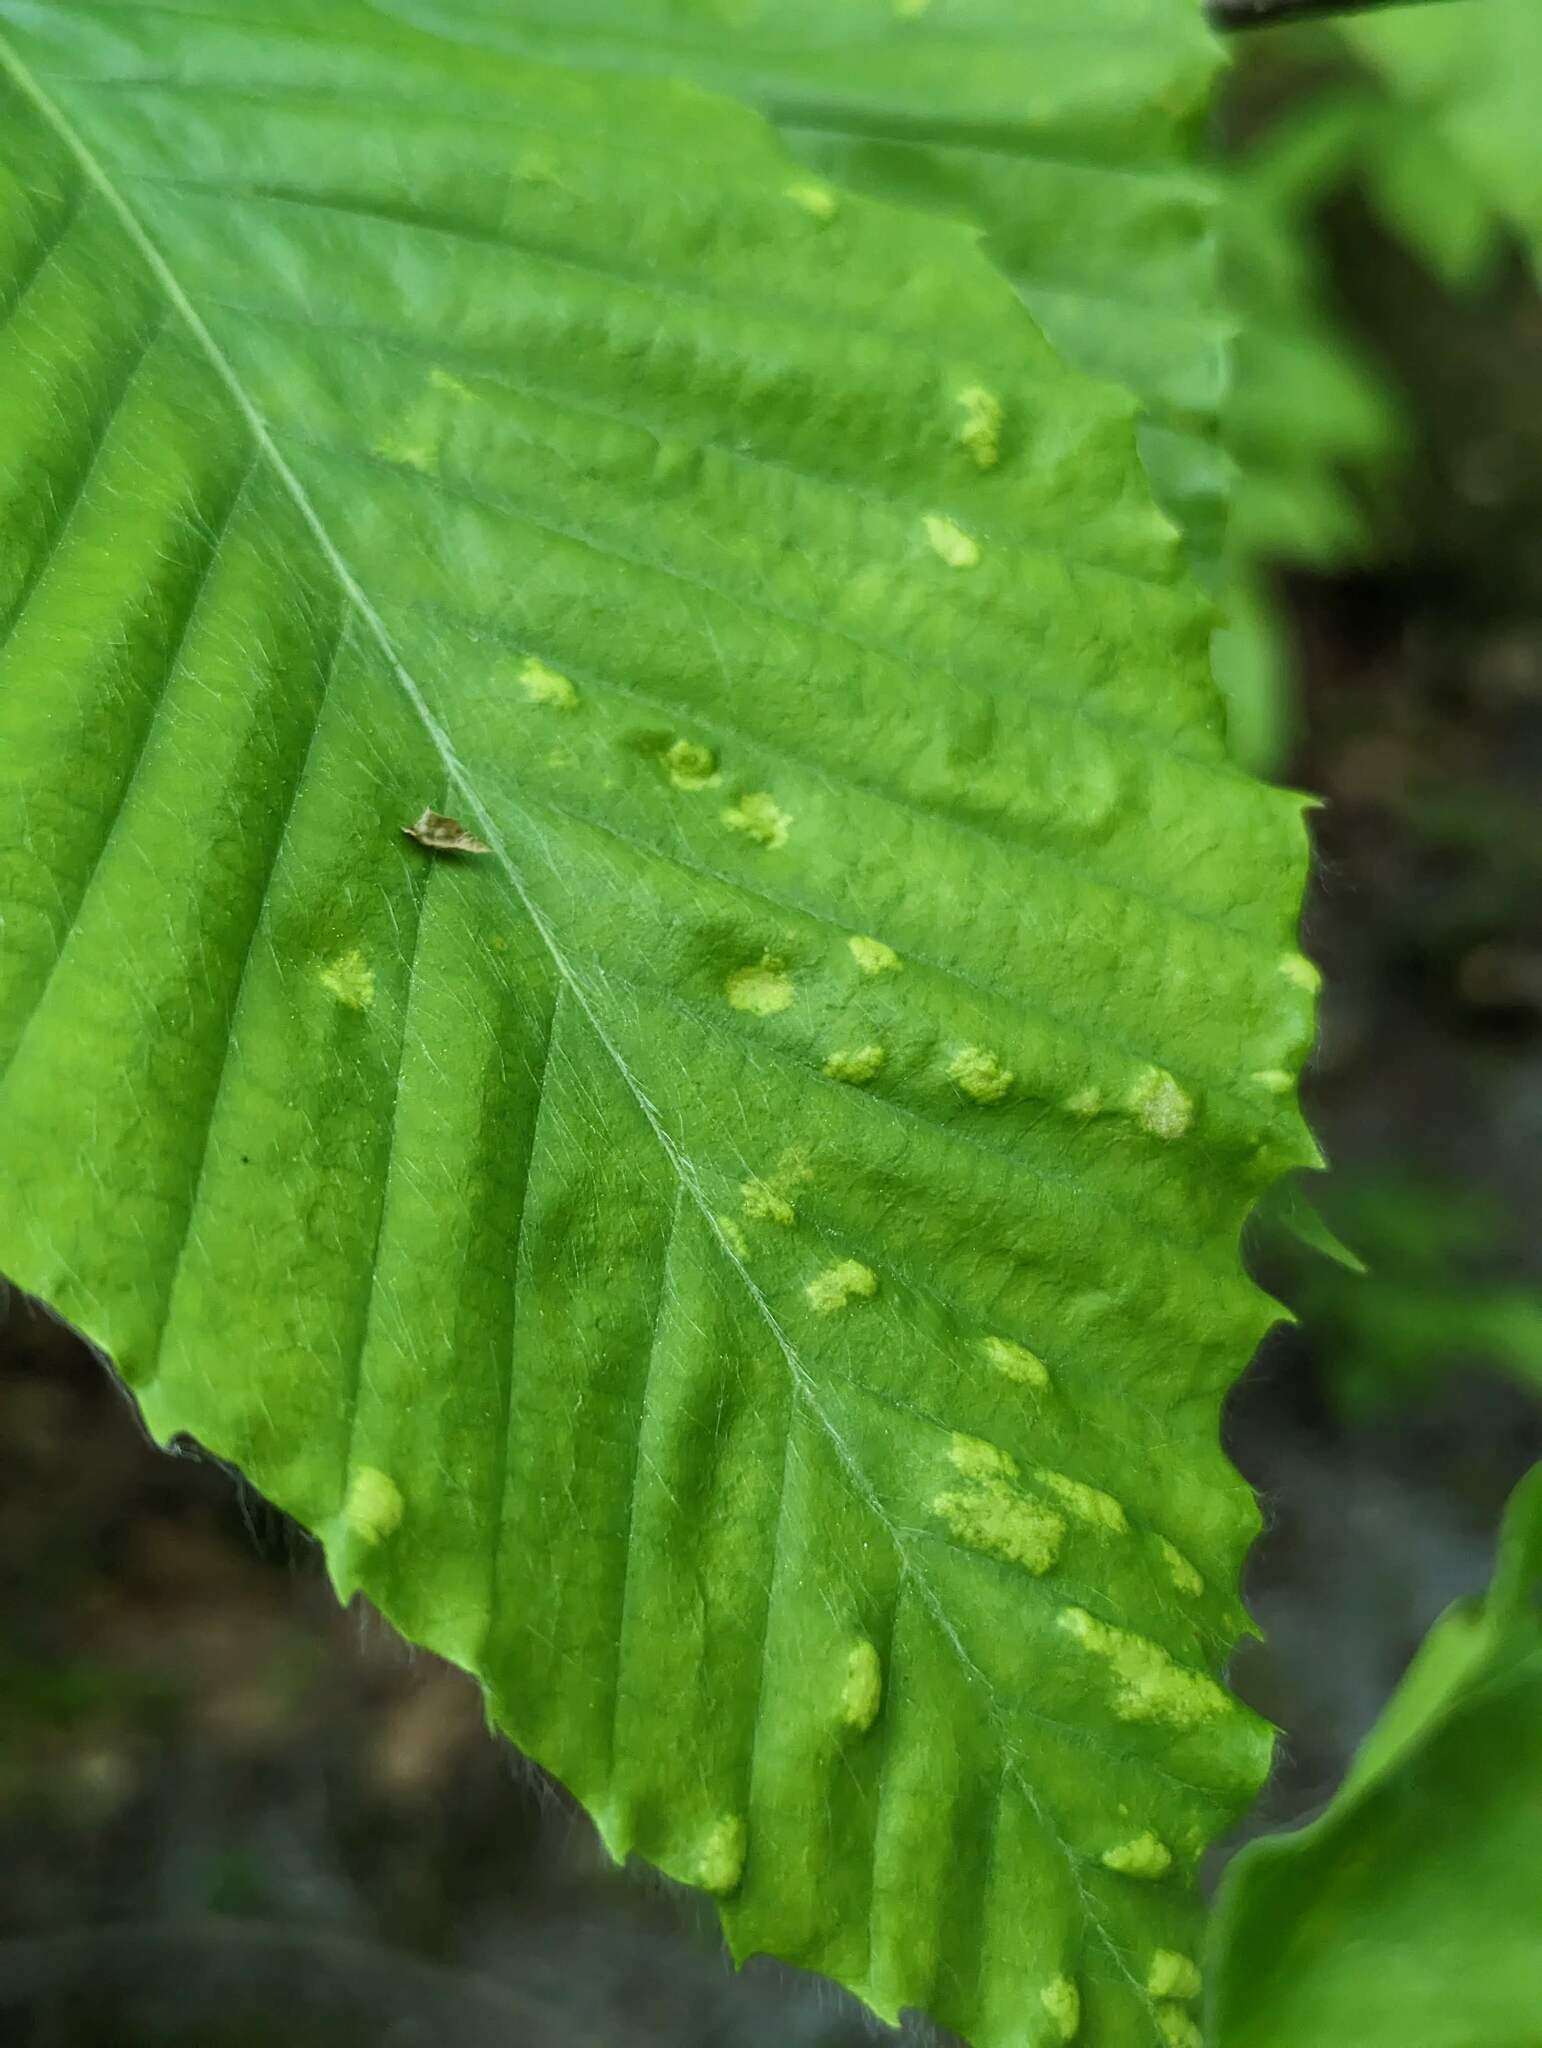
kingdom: Animalia
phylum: Arthropoda
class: Arachnida
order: Trombidiformes
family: Eriophyidae
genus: Acalitus
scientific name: Acalitus
